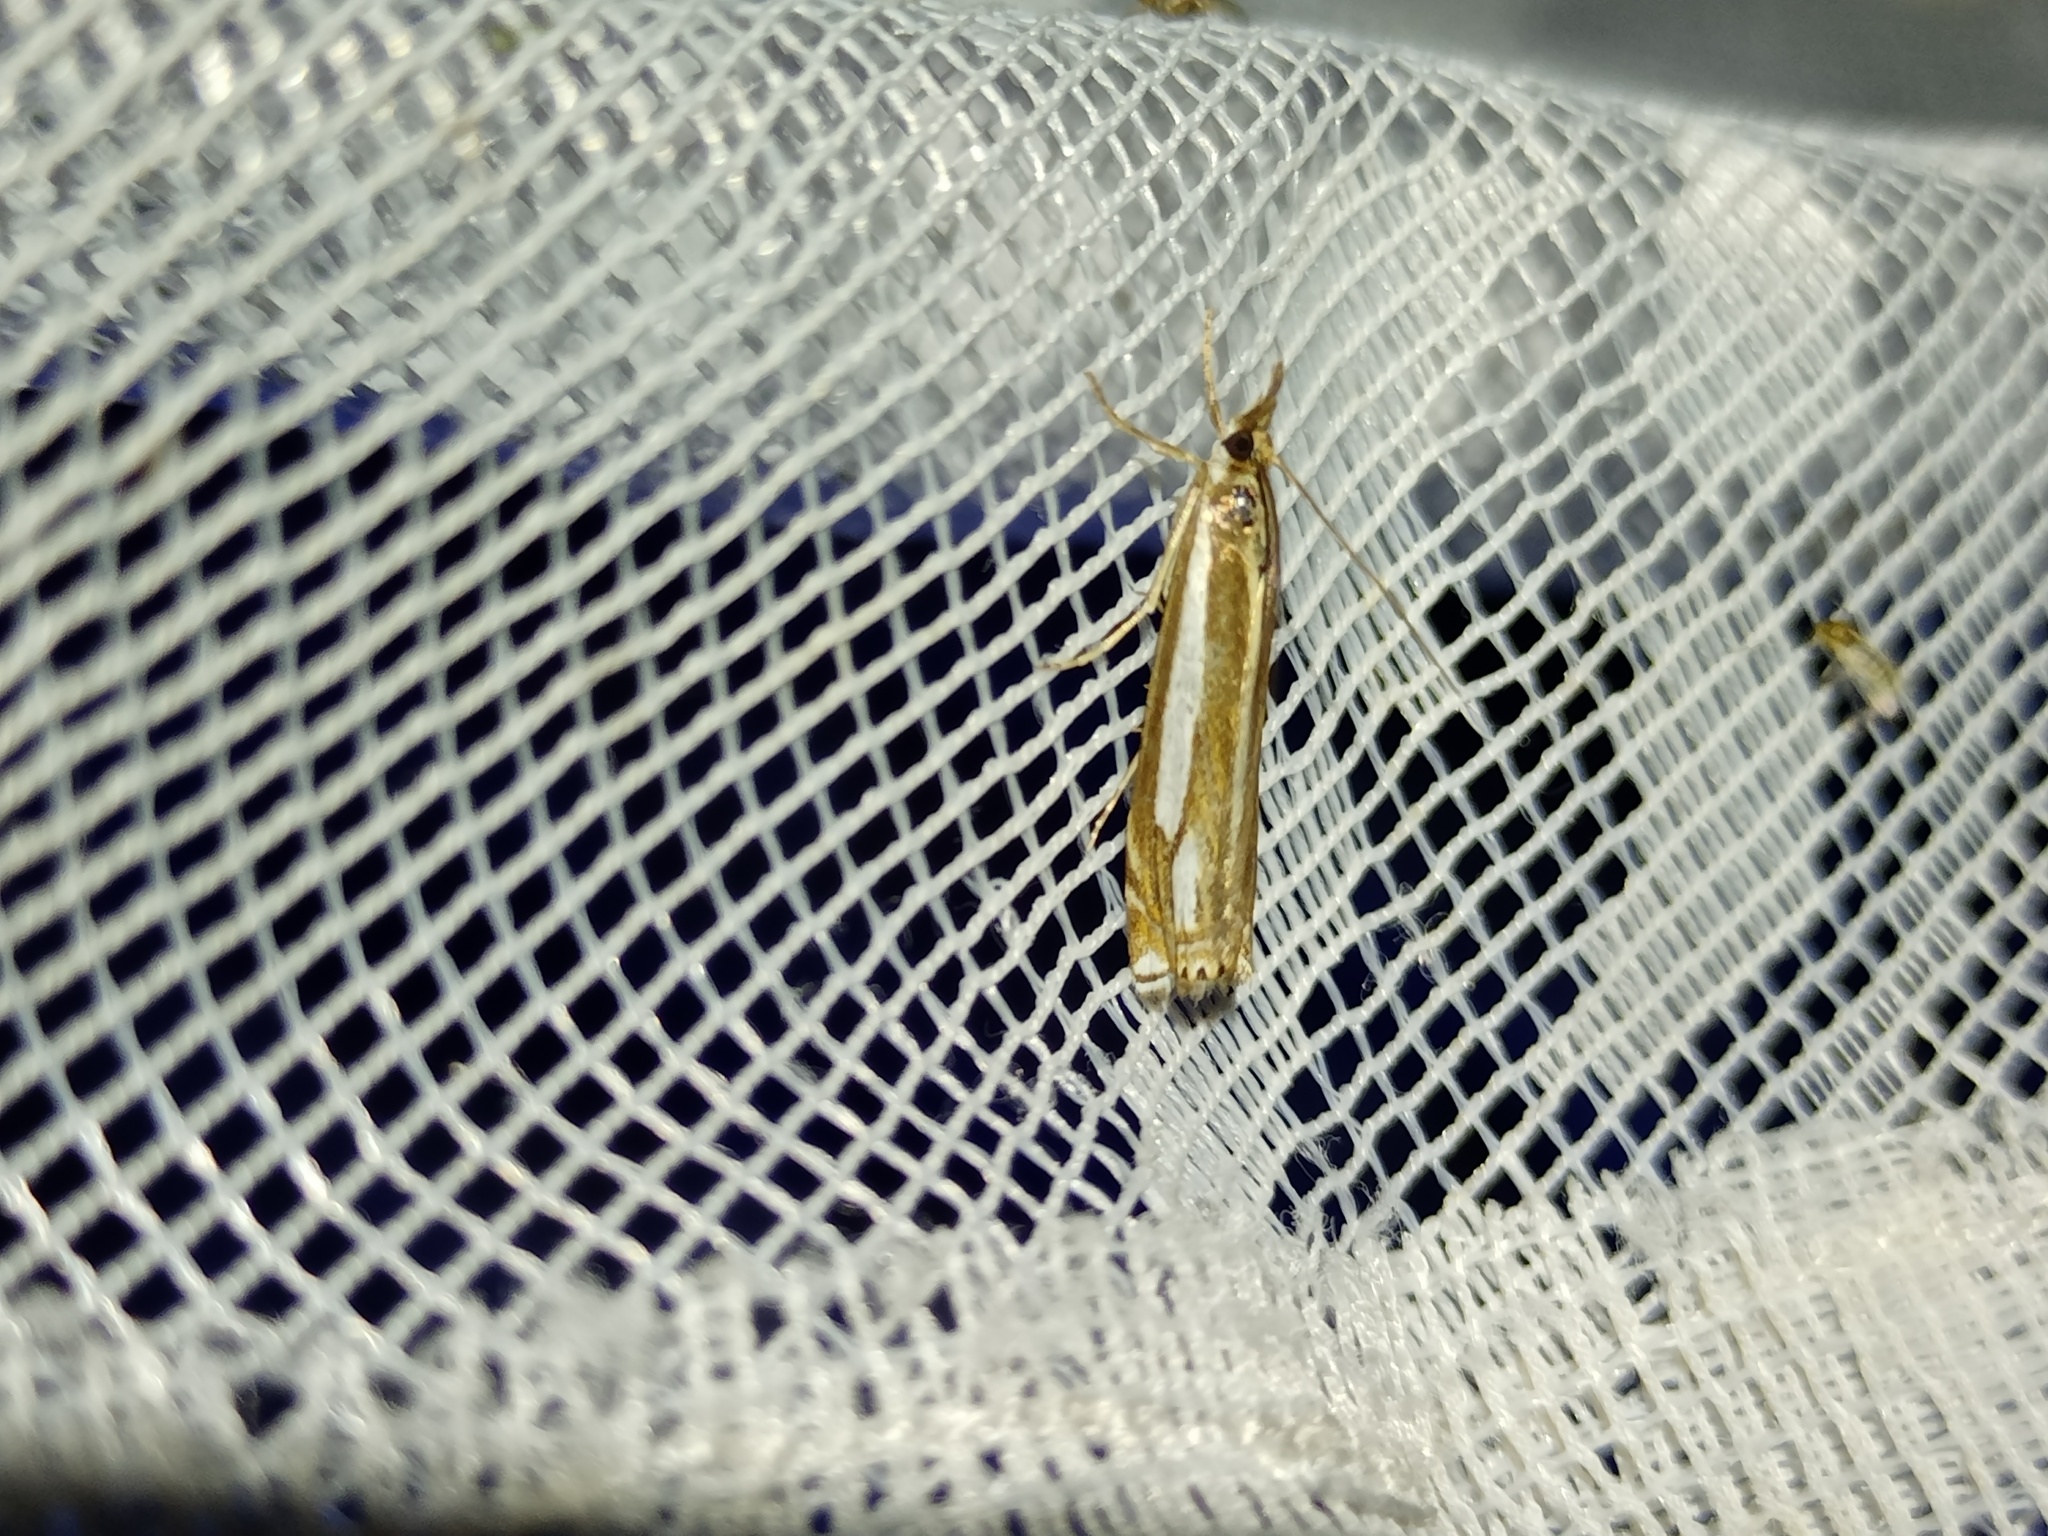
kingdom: Animalia
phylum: Arthropoda
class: Insecta
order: Lepidoptera
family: Crambidae
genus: Crambus
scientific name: Crambus ericella
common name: Heath grass-veneer
